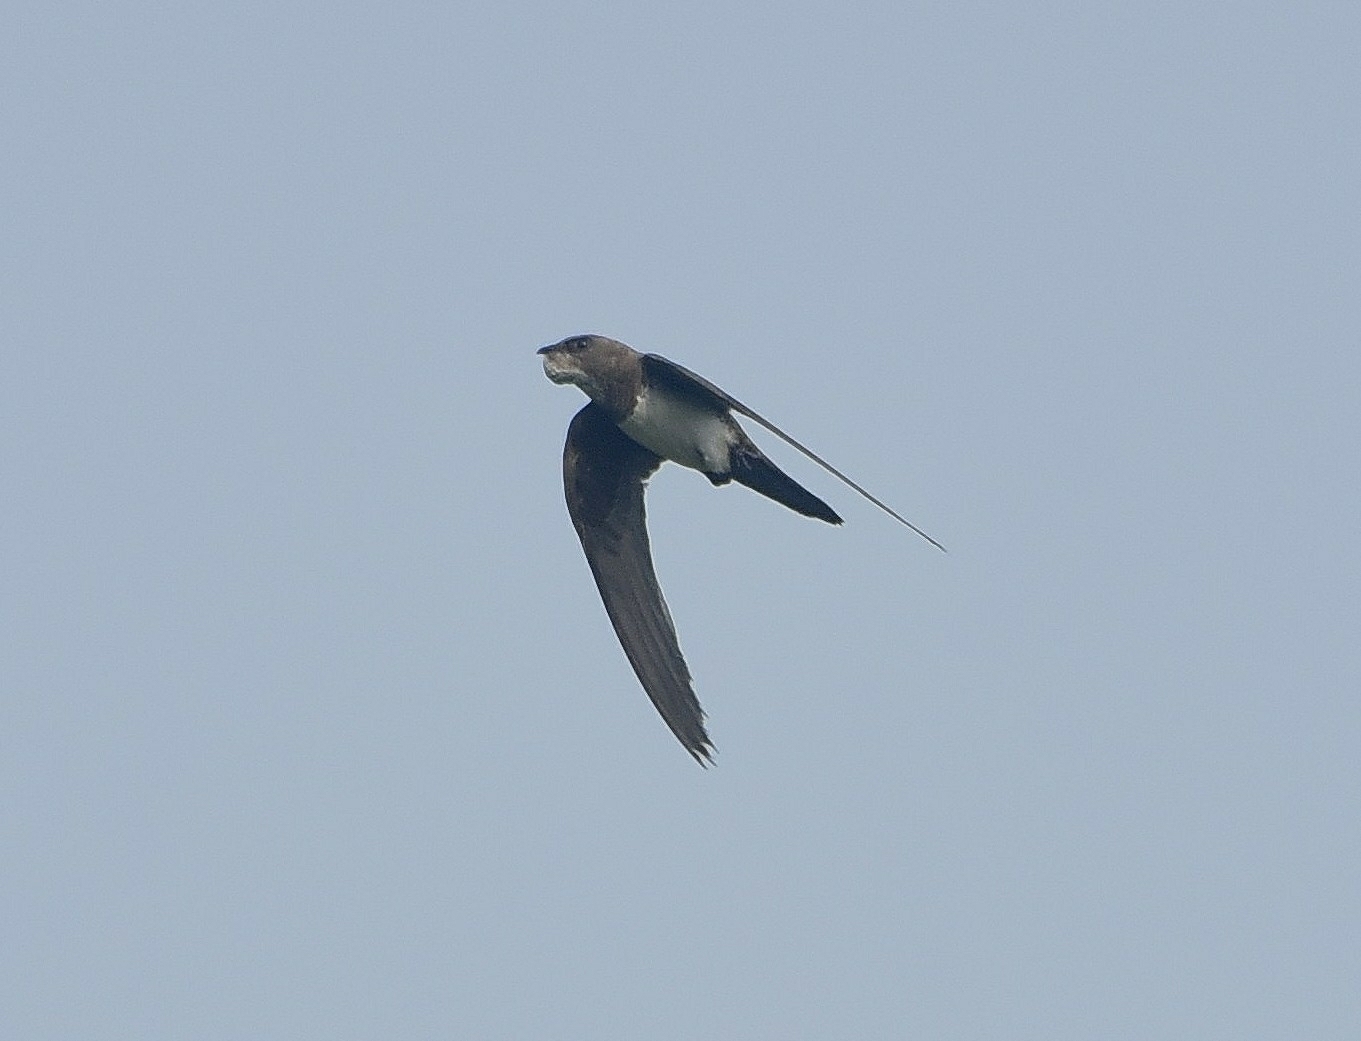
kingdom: Animalia
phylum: Chordata
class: Aves
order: Apodiformes
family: Apodidae
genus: Tachymarptis
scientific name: Tachymarptis melba
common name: Alpine swift
